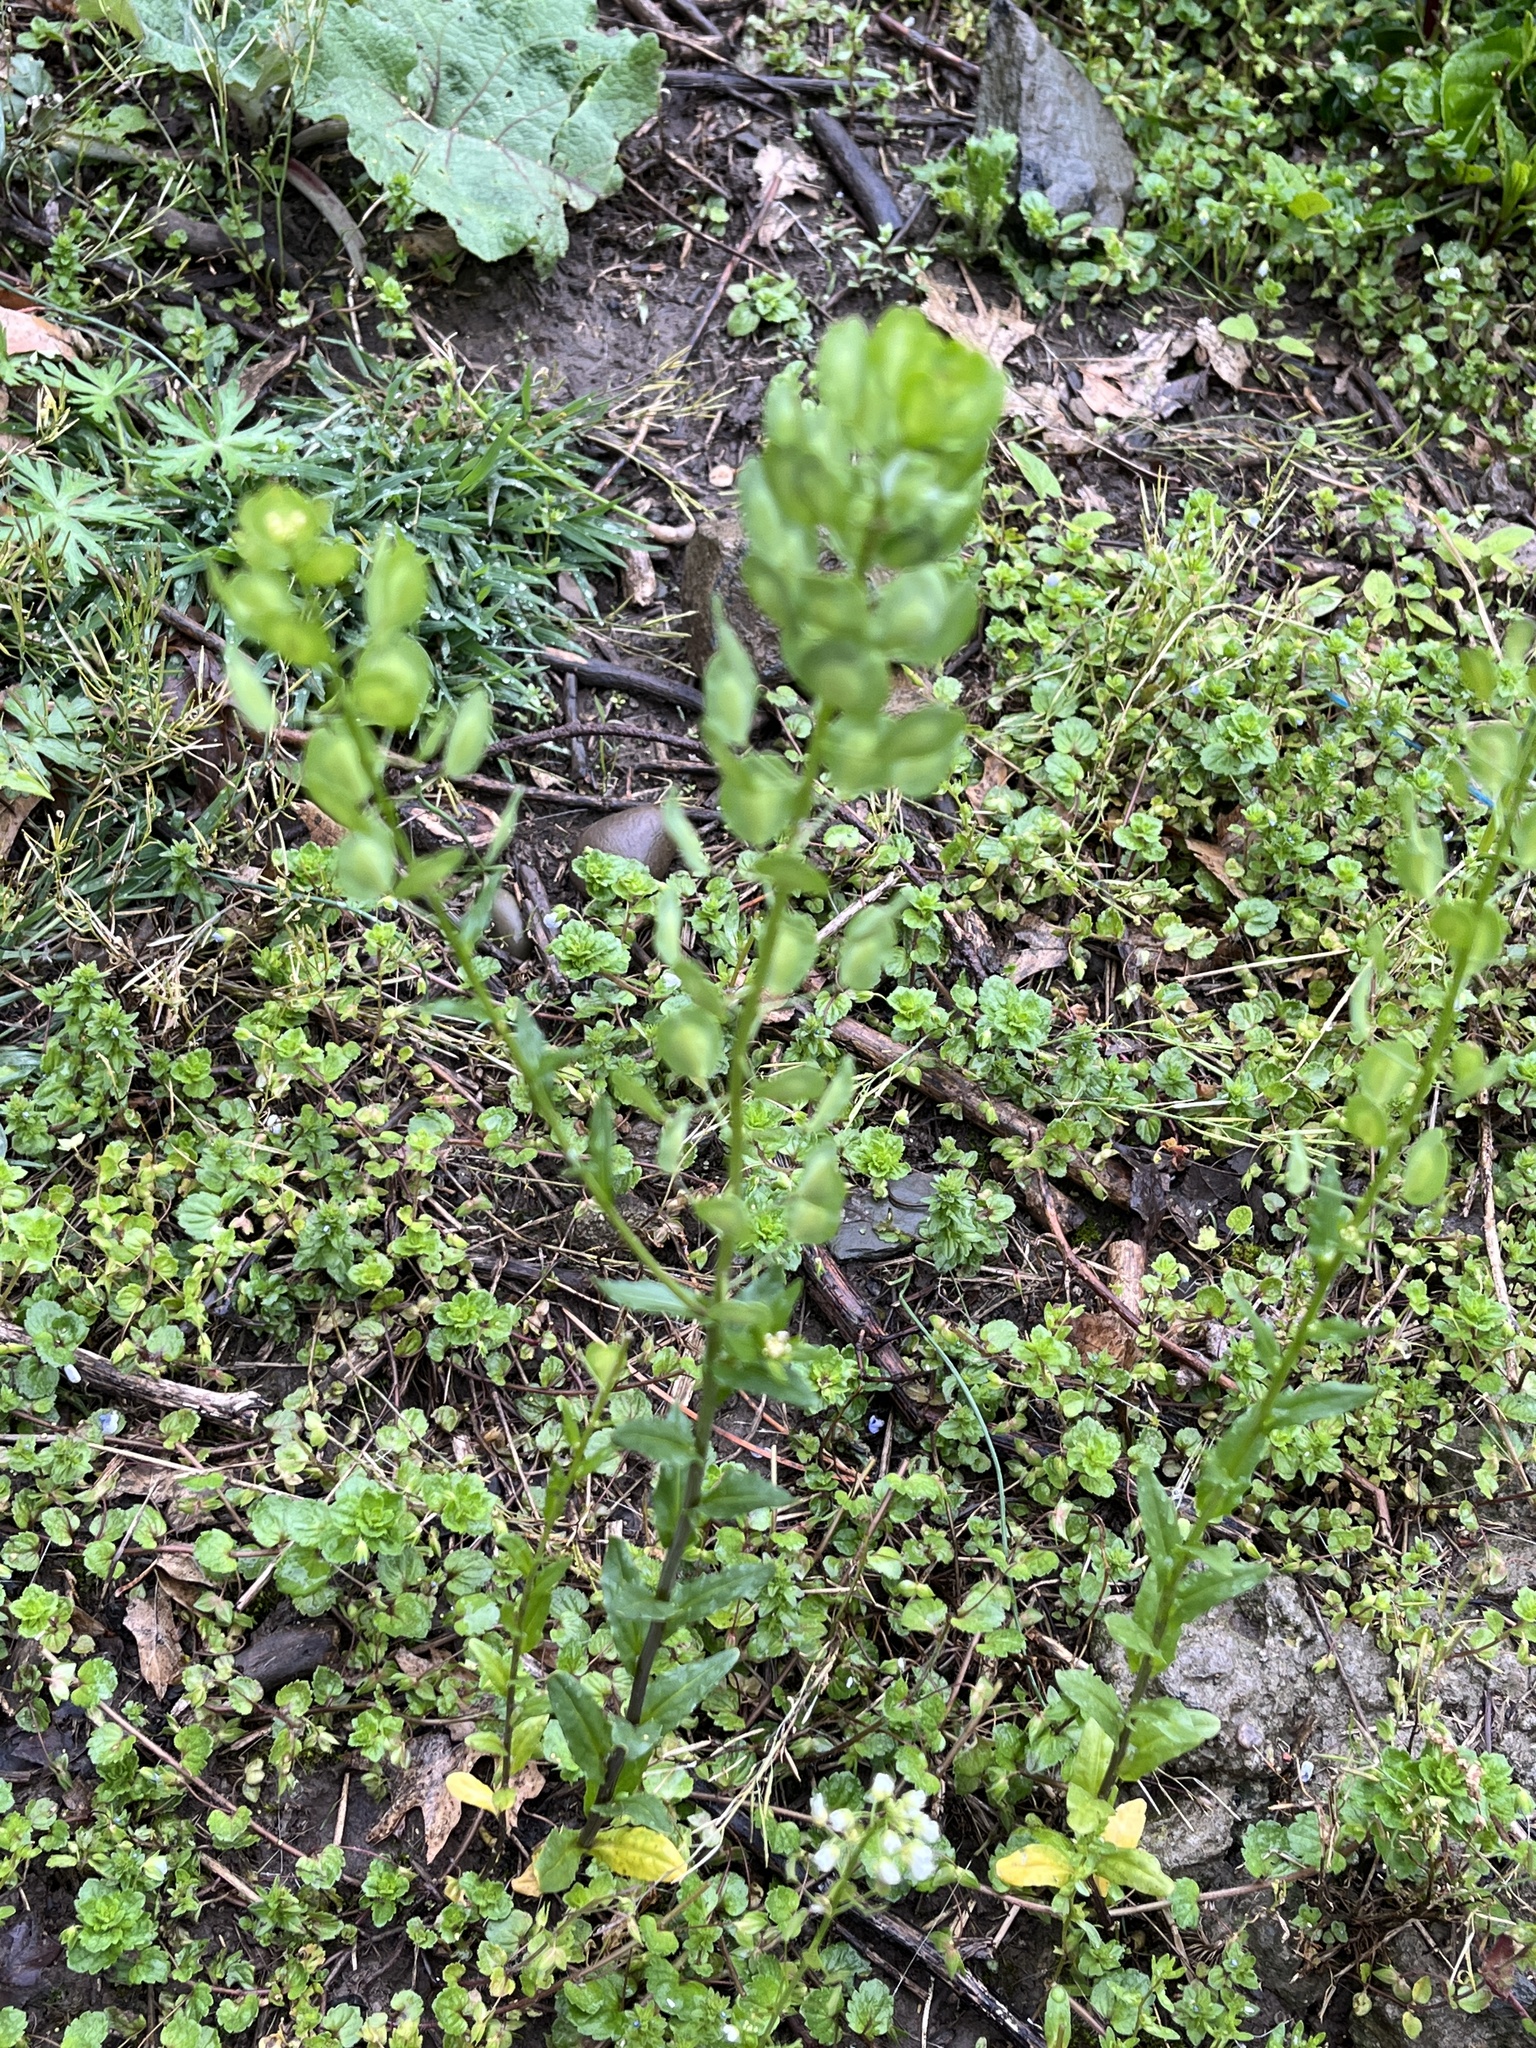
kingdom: Plantae
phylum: Tracheophyta
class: Magnoliopsida
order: Brassicales
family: Brassicaceae
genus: Thlaspi
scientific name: Thlaspi arvense
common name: Field pennycress
